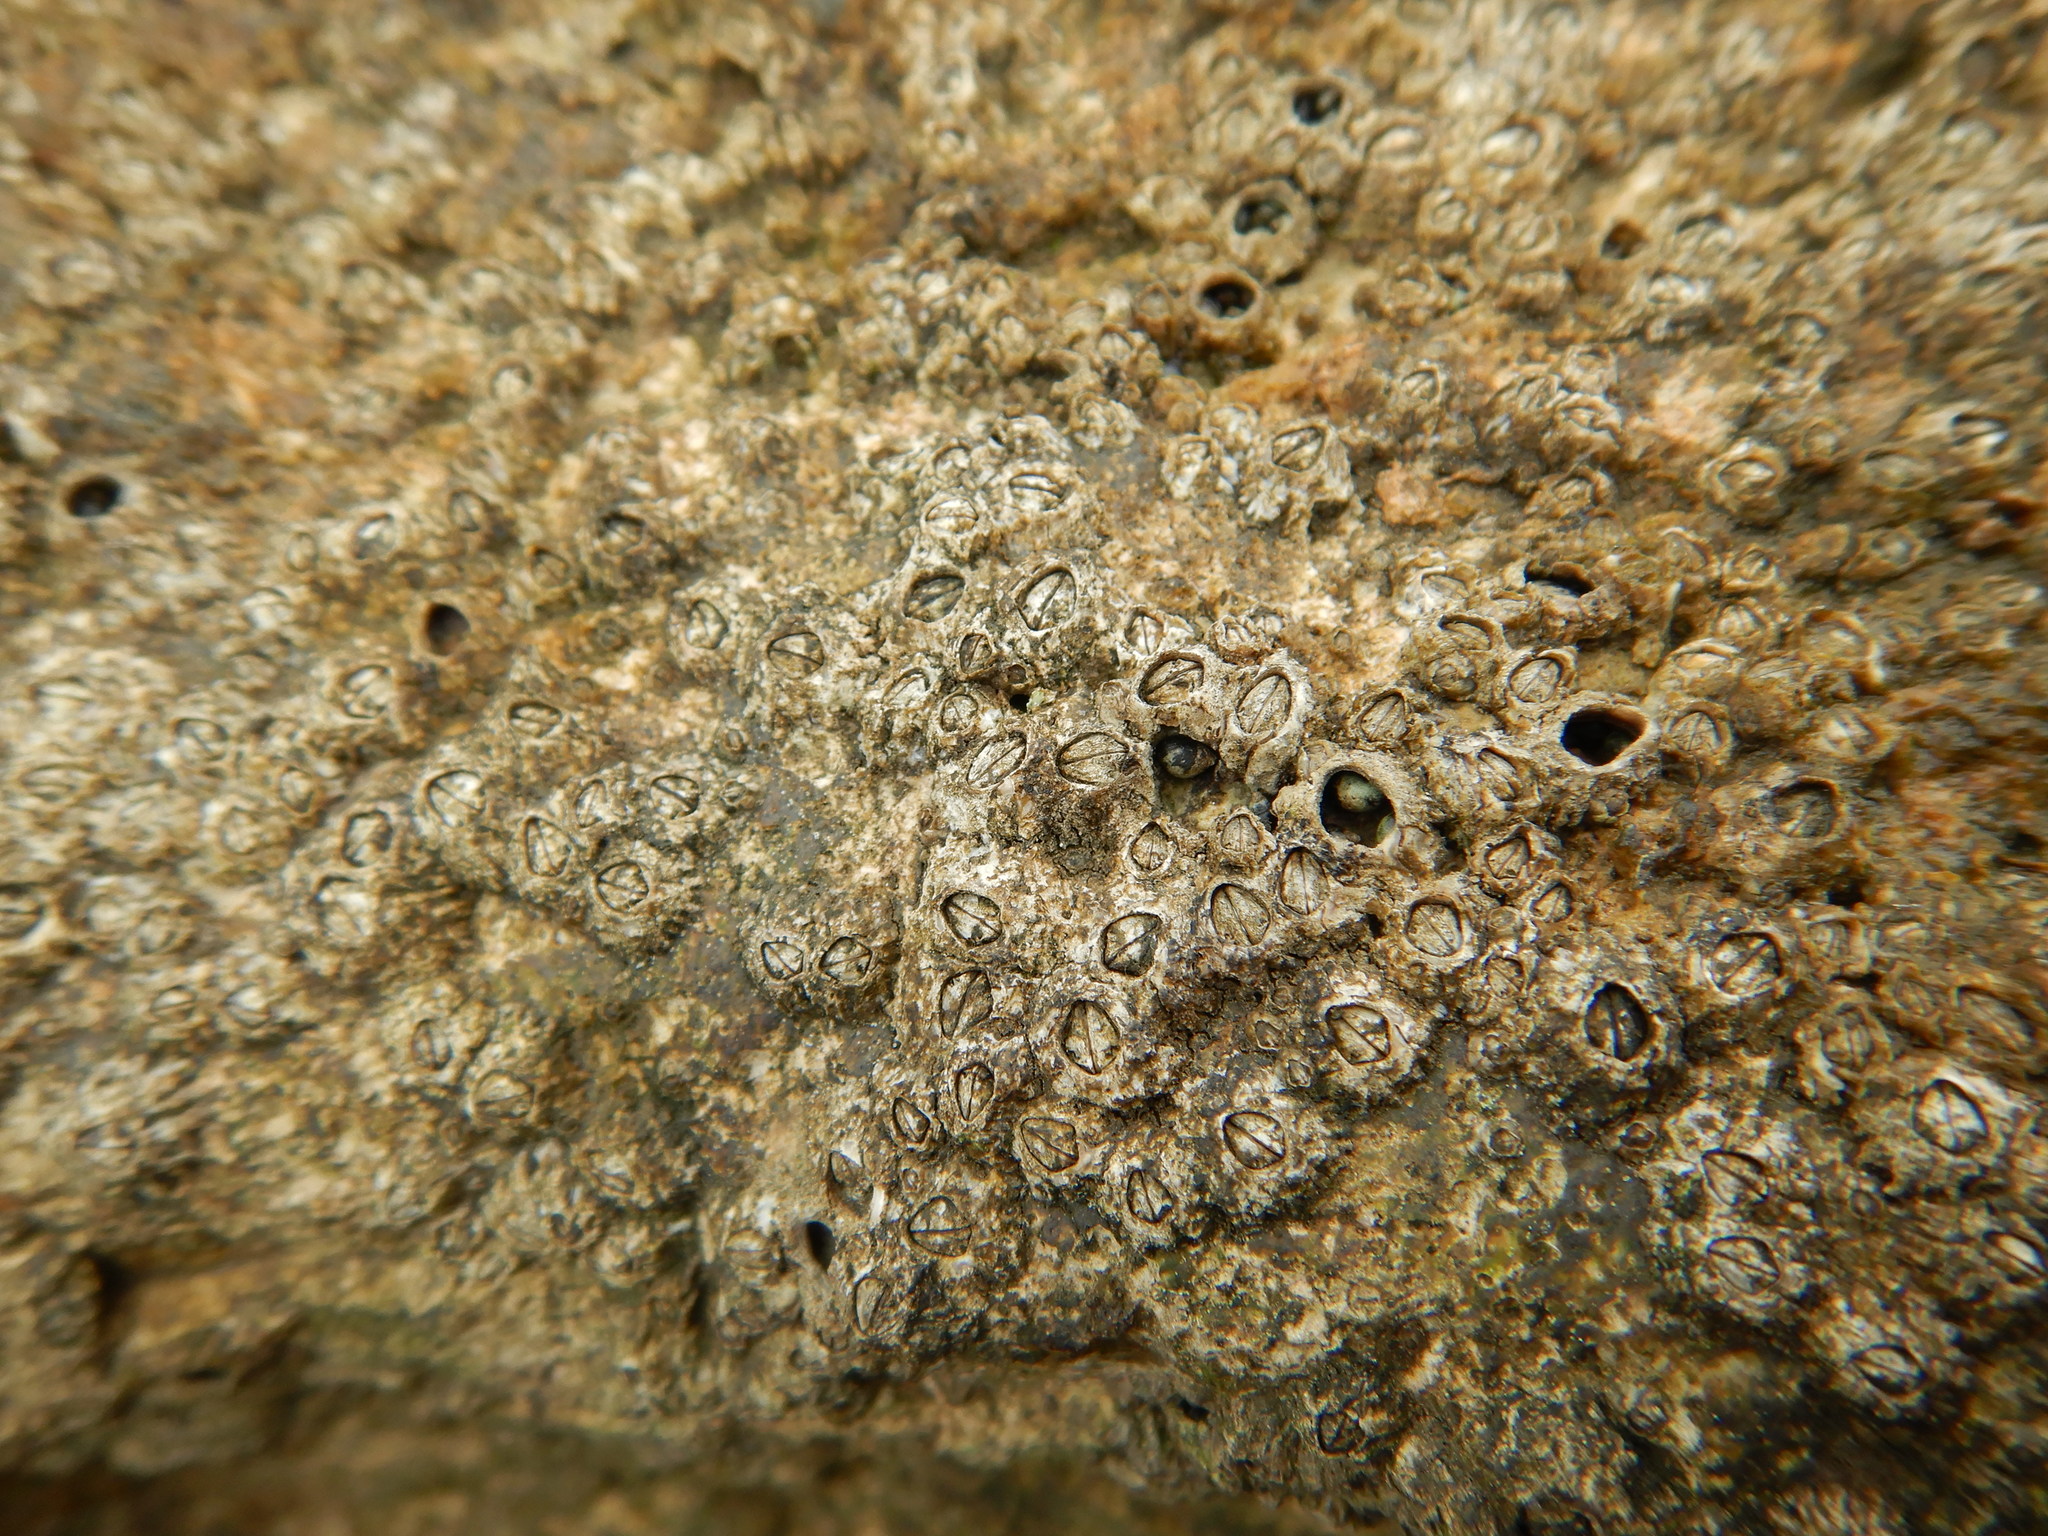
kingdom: Animalia
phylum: Arthropoda
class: Maxillopoda
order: Sessilia
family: Chthamalidae
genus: Chthamalus
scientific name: Chthamalus montagui
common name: Montagu's stellate barnacle
